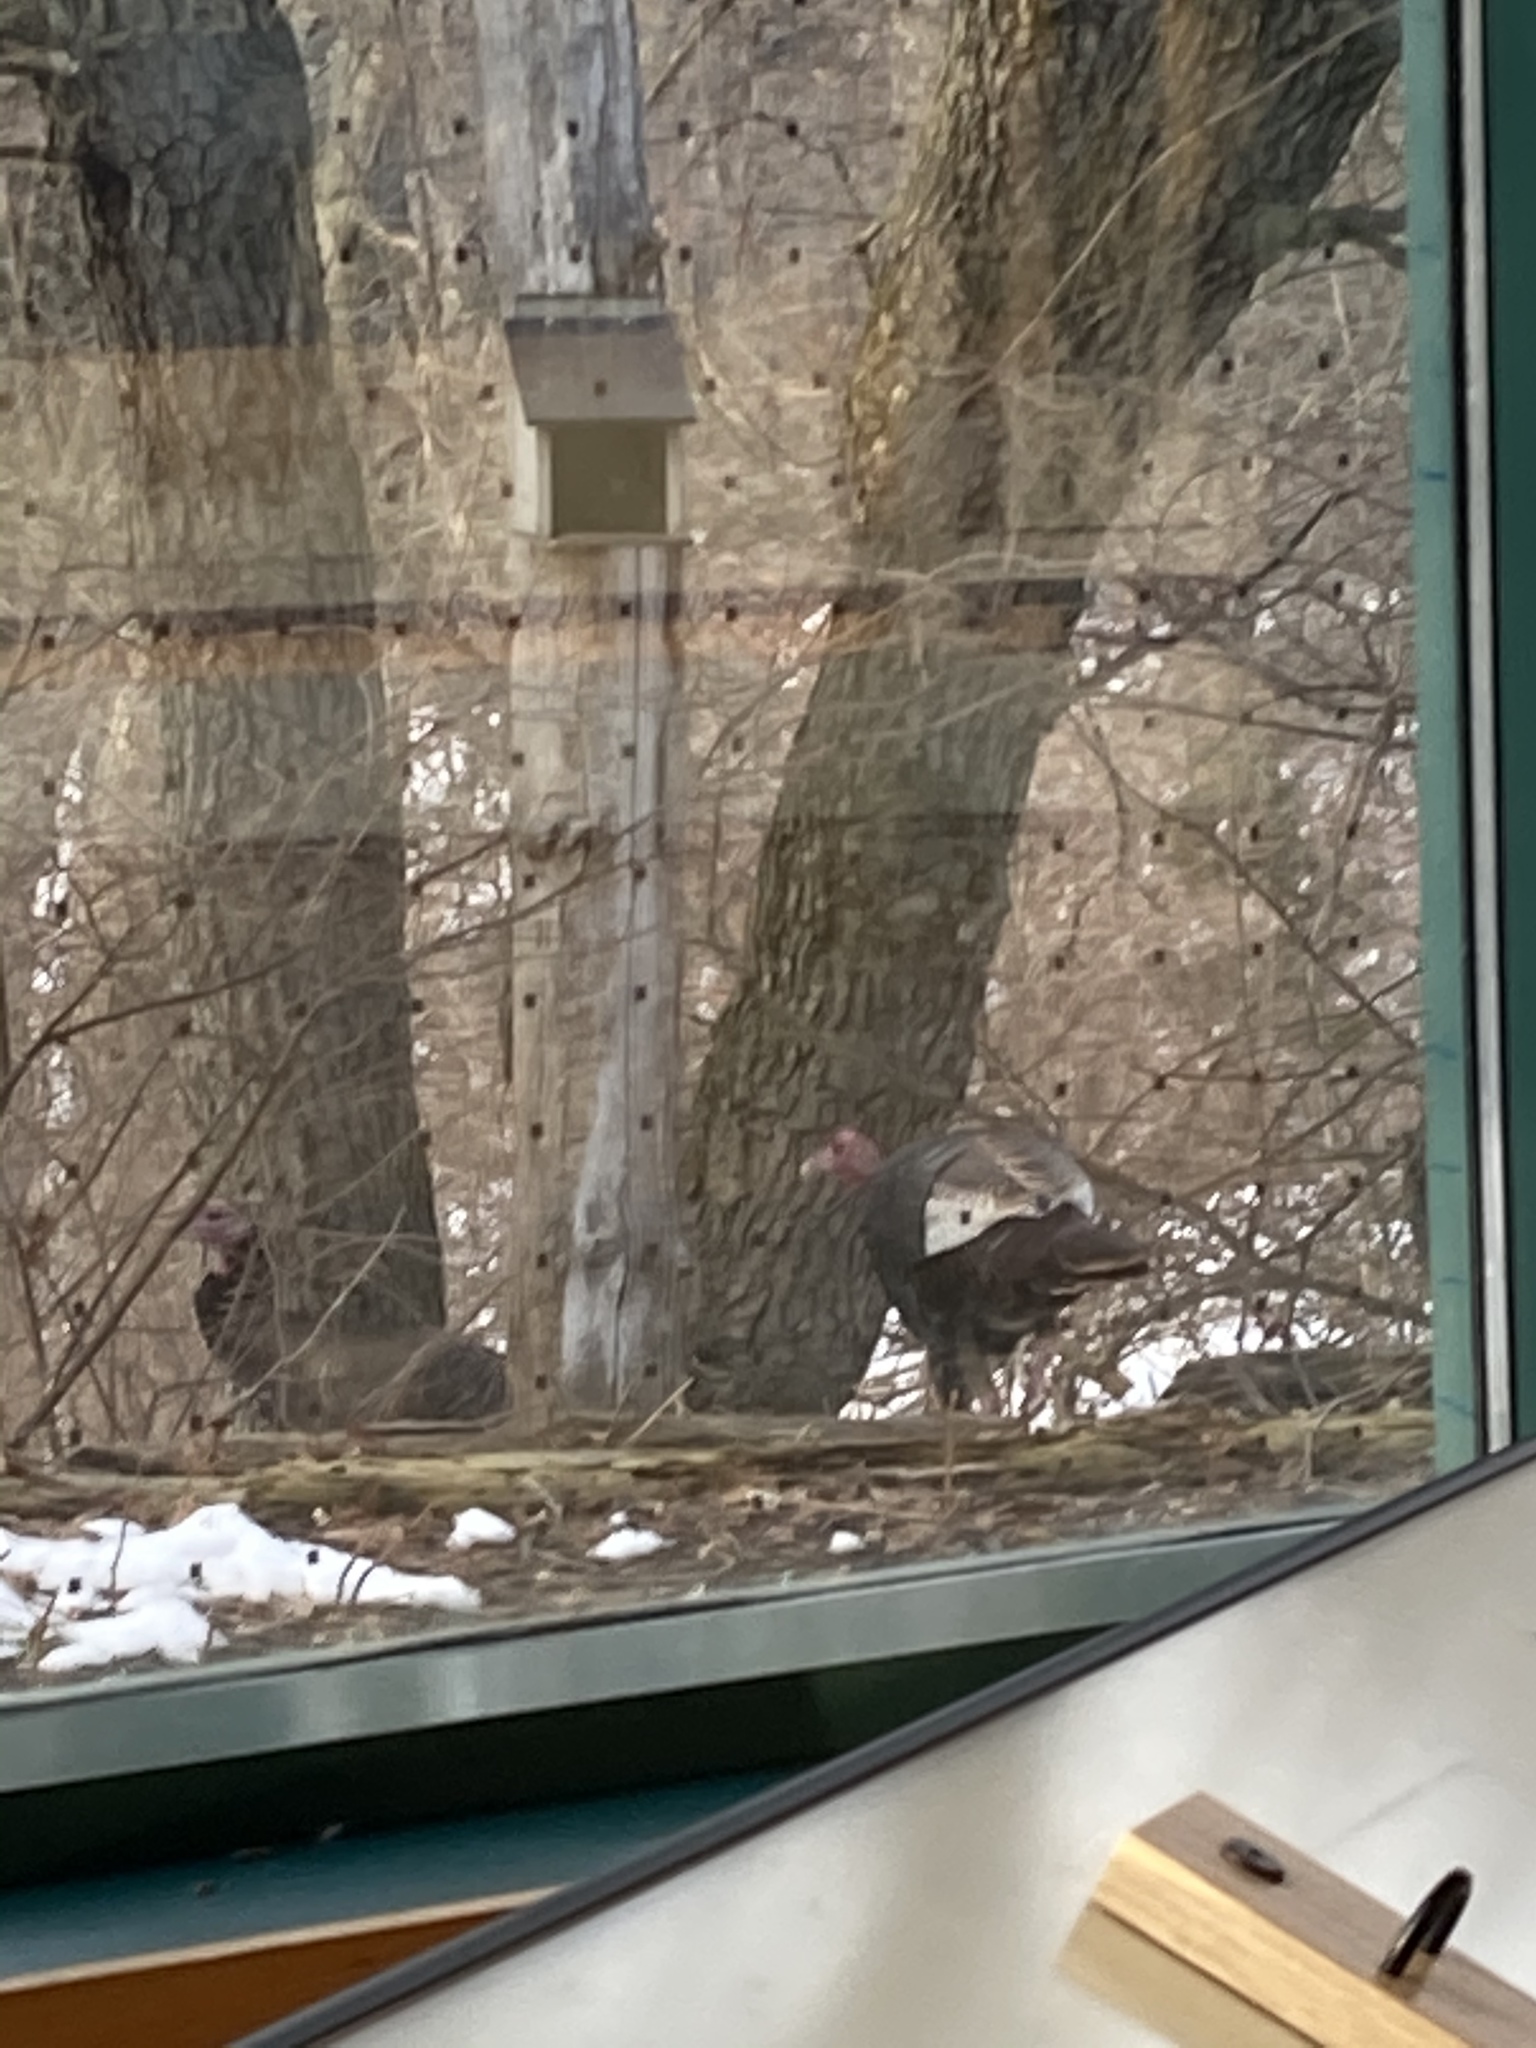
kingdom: Animalia
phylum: Chordata
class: Aves
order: Galliformes
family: Phasianidae
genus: Meleagris
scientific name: Meleagris gallopavo
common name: Wild turkey
